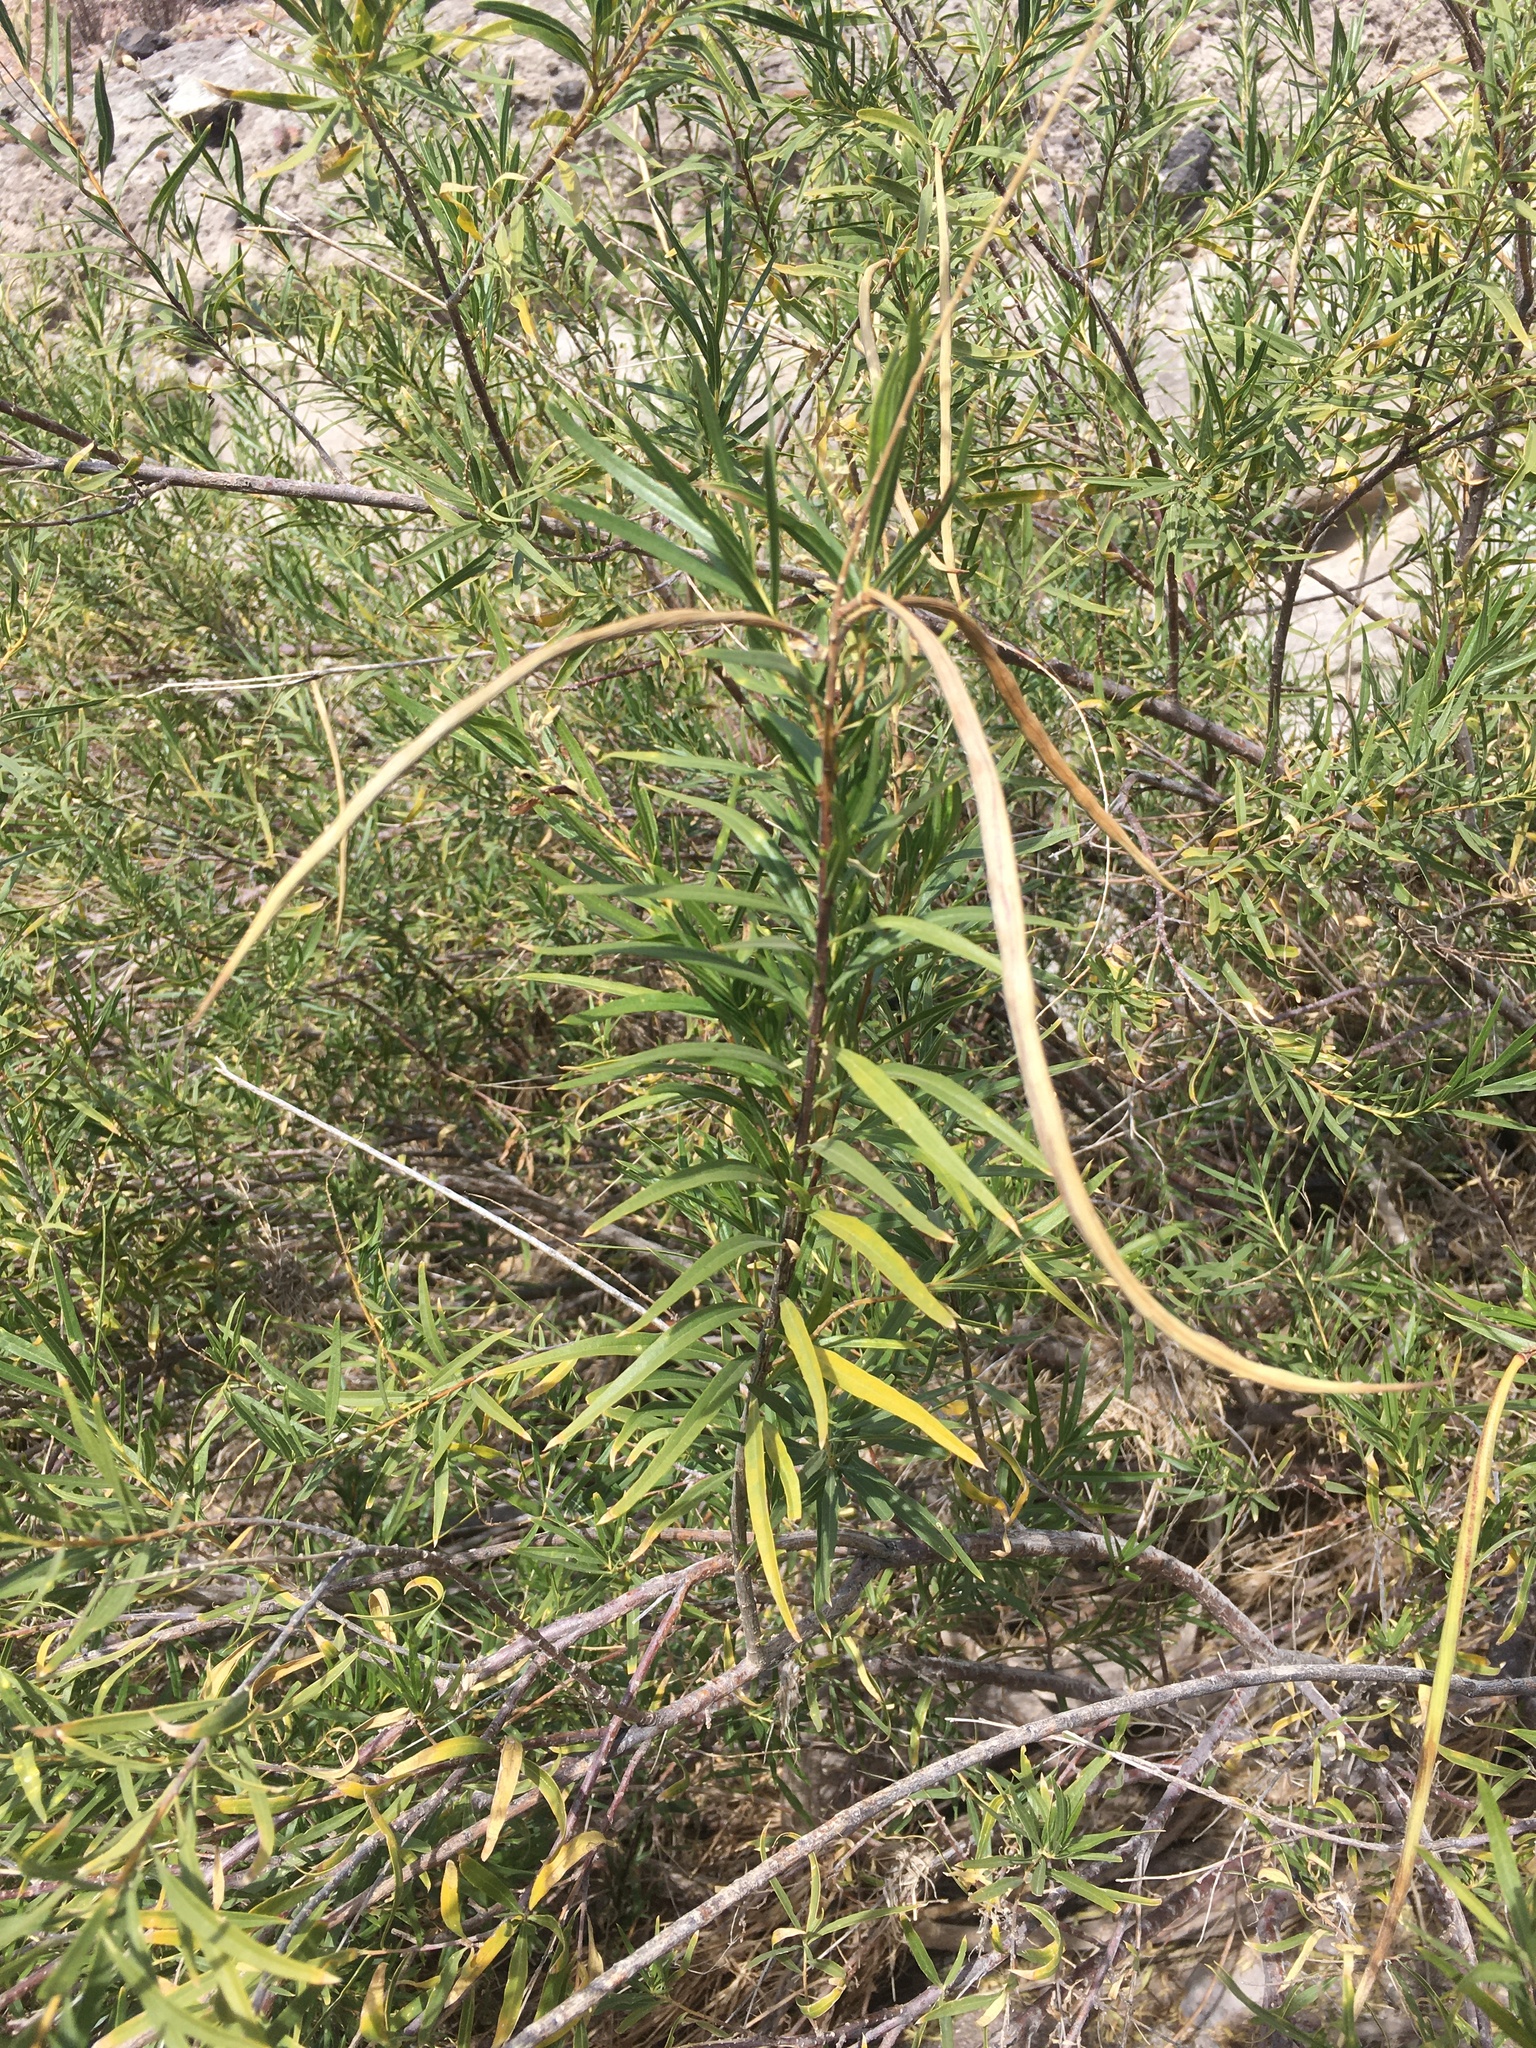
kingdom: Plantae
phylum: Tracheophyta
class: Magnoliopsida
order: Lamiales
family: Bignoniaceae
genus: Chilopsis
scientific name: Chilopsis linearis
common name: Desert-willow
